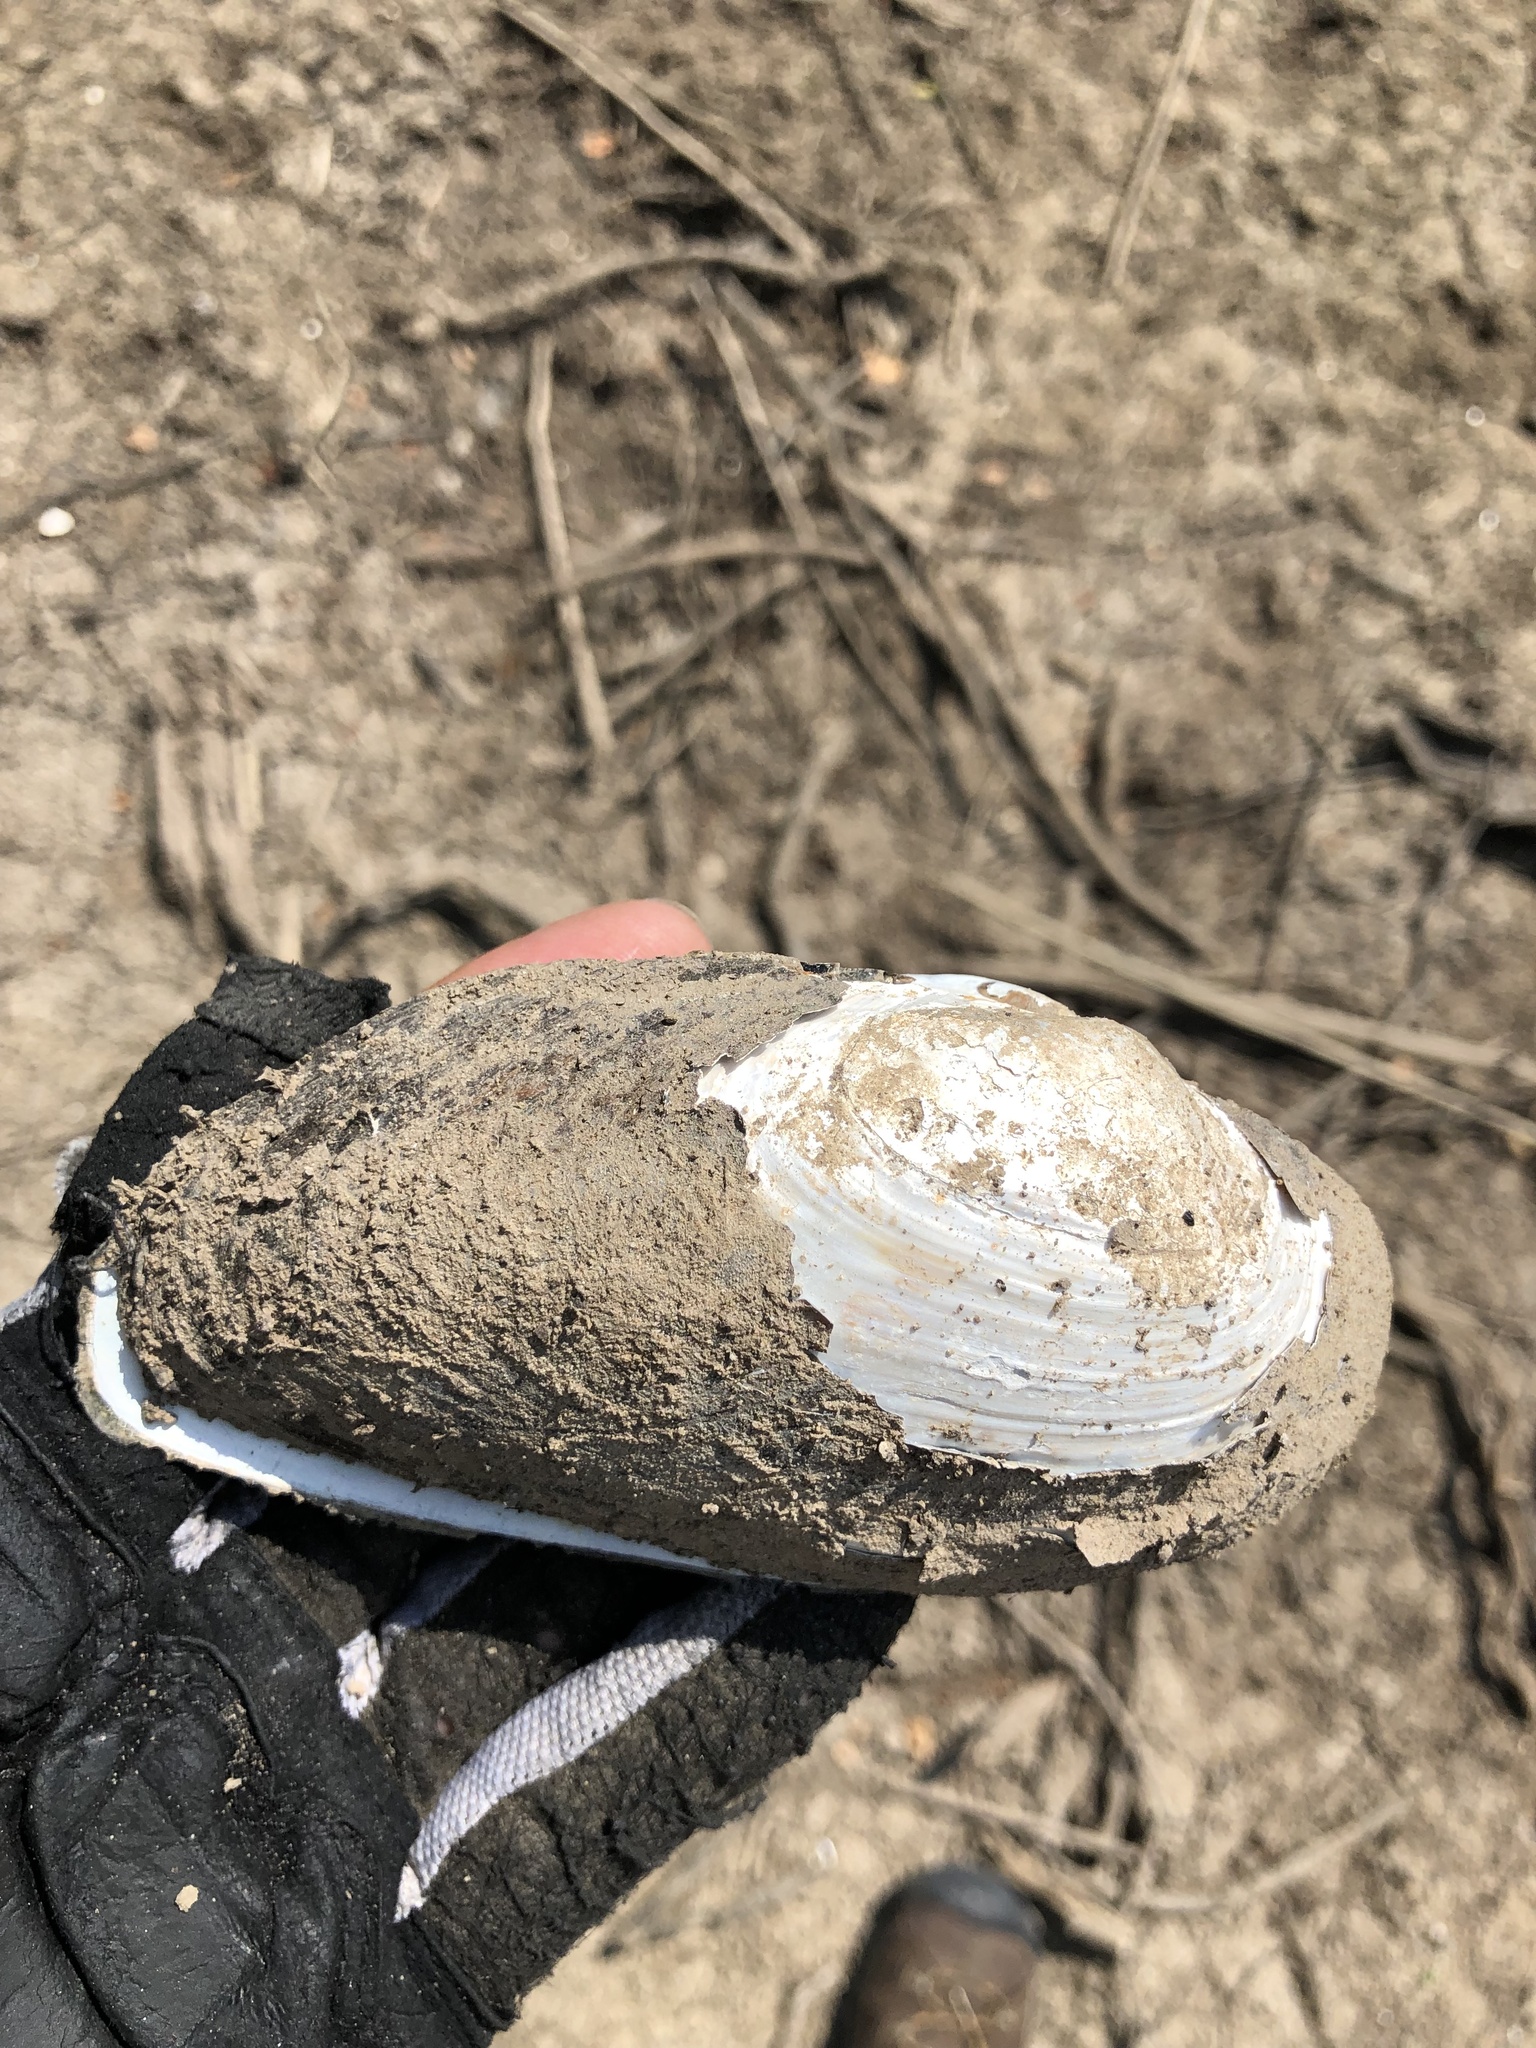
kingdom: Animalia
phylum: Mollusca
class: Bivalvia
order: Unionida
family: Unionidae
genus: Uniomerus
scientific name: Uniomerus declivis
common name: Tapered pondhorn
